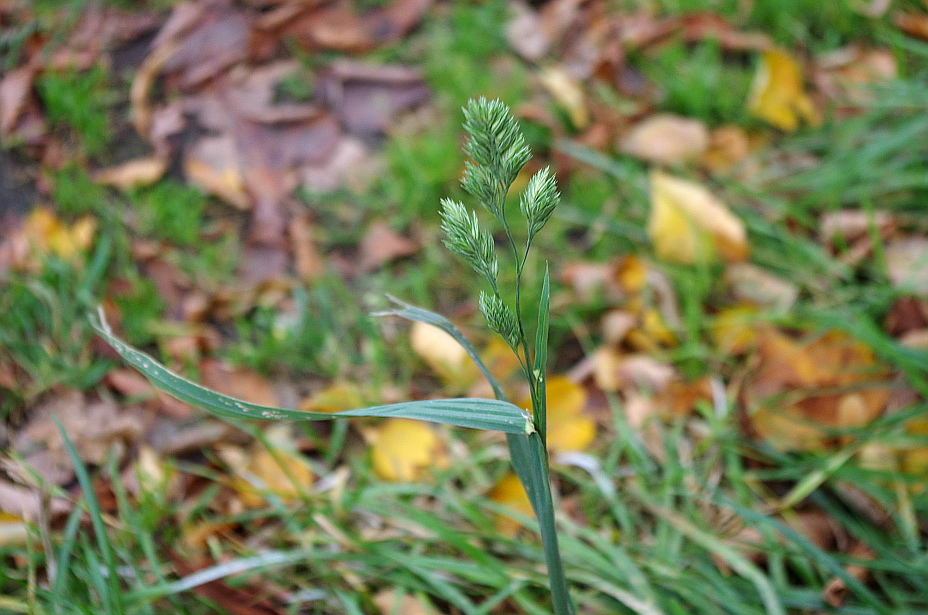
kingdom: Plantae
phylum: Tracheophyta
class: Liliopsida
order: Poales
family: Poaceae
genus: Dactylis
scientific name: Dactylis glomerata
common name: Orchardgrass
